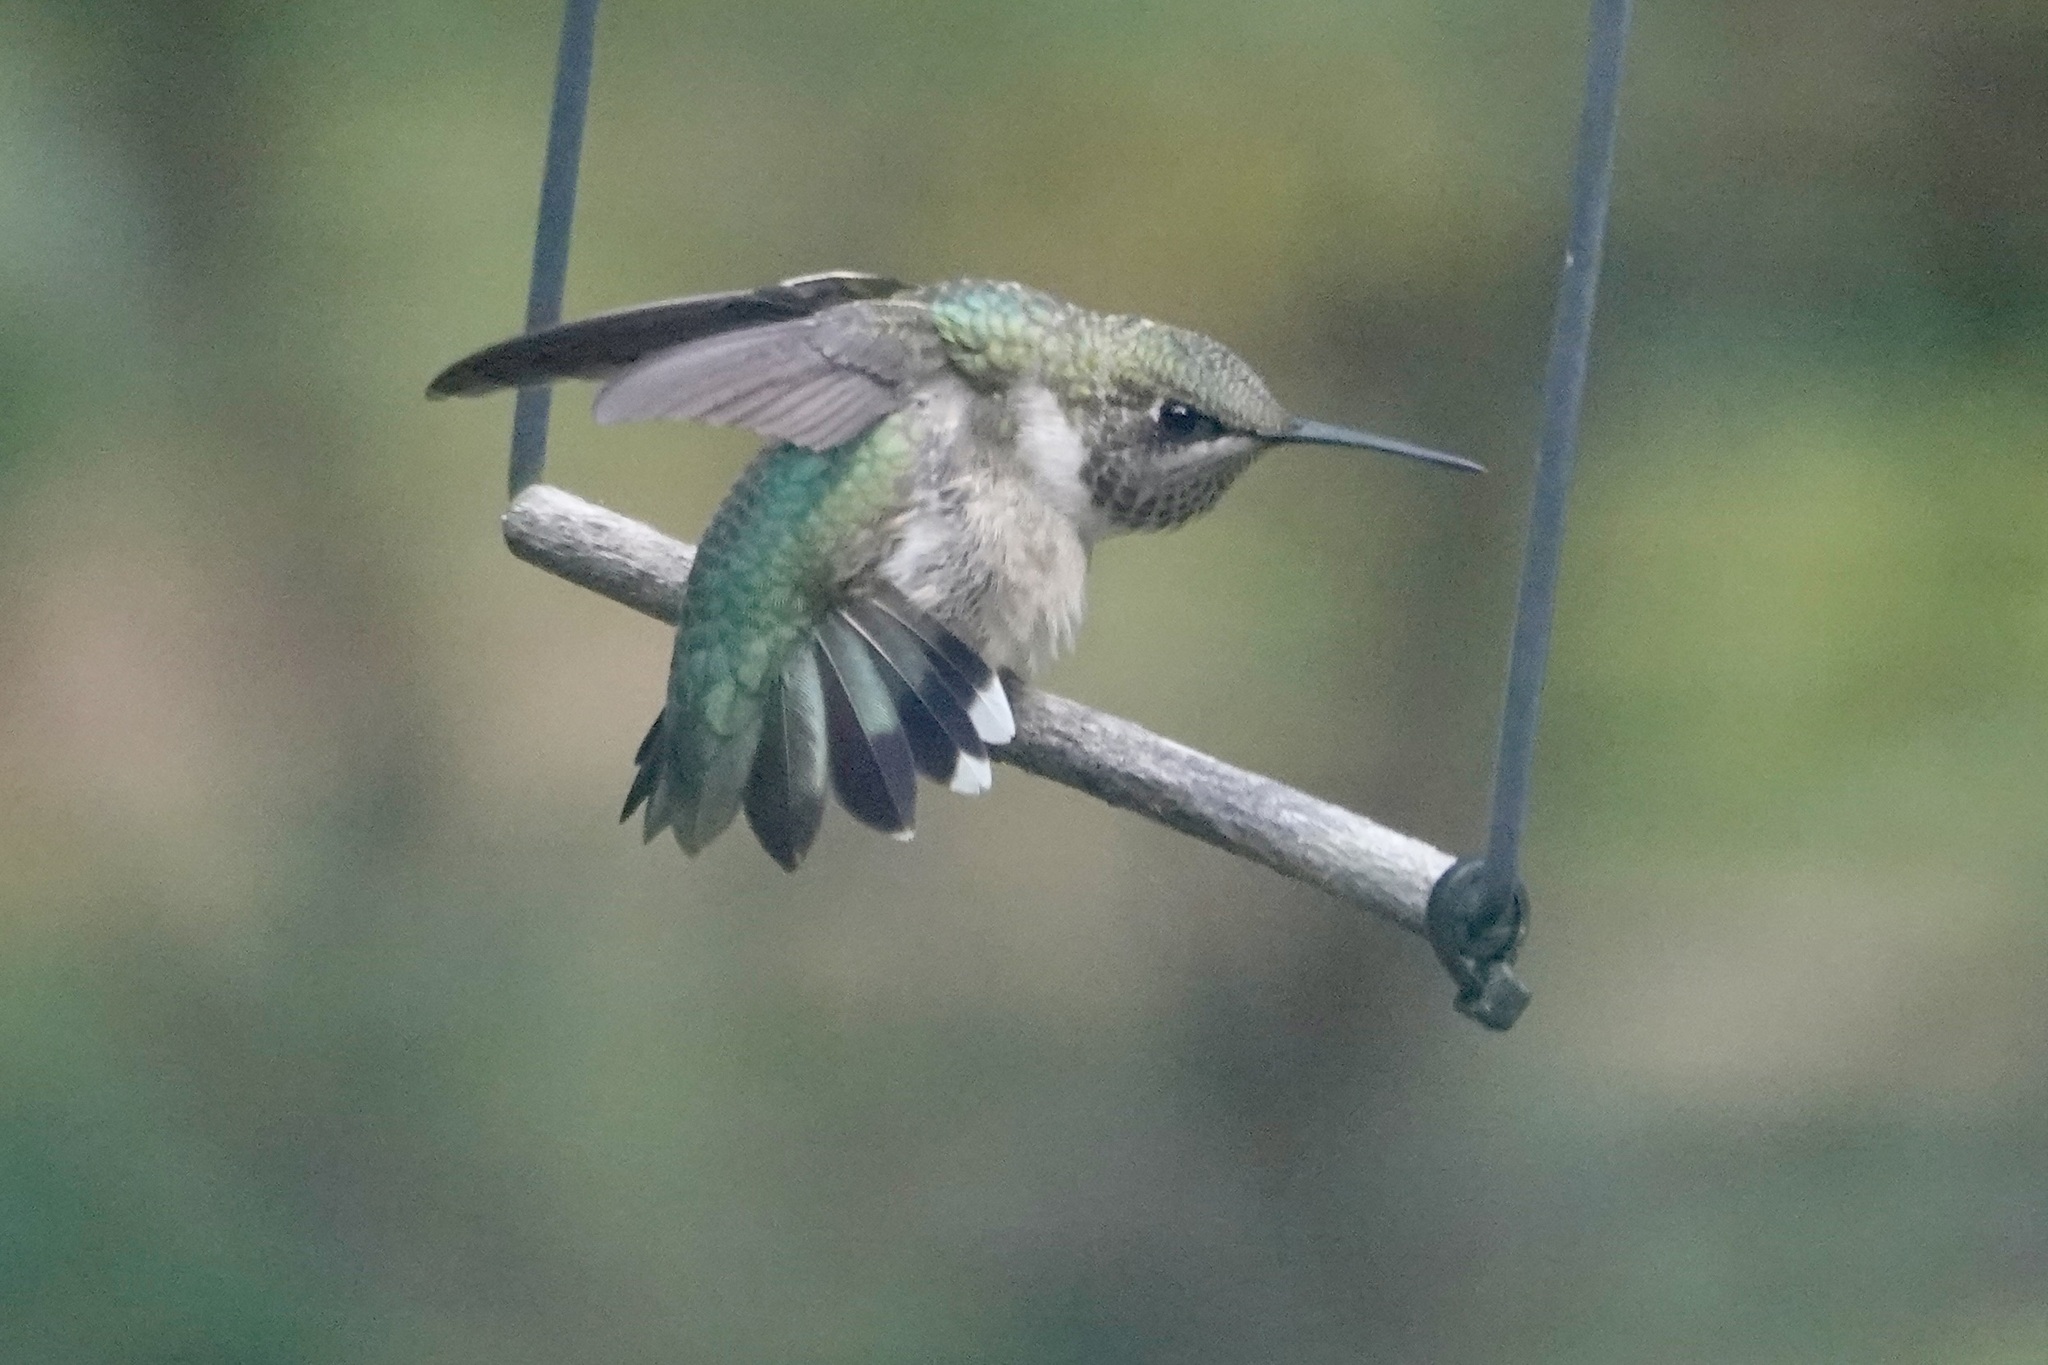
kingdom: Animalia
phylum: Chordata
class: Aves
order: Apodiformes
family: Trochilidae
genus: Archilochus
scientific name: Archilochus colubris
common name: Ruby-throated hummingbird
